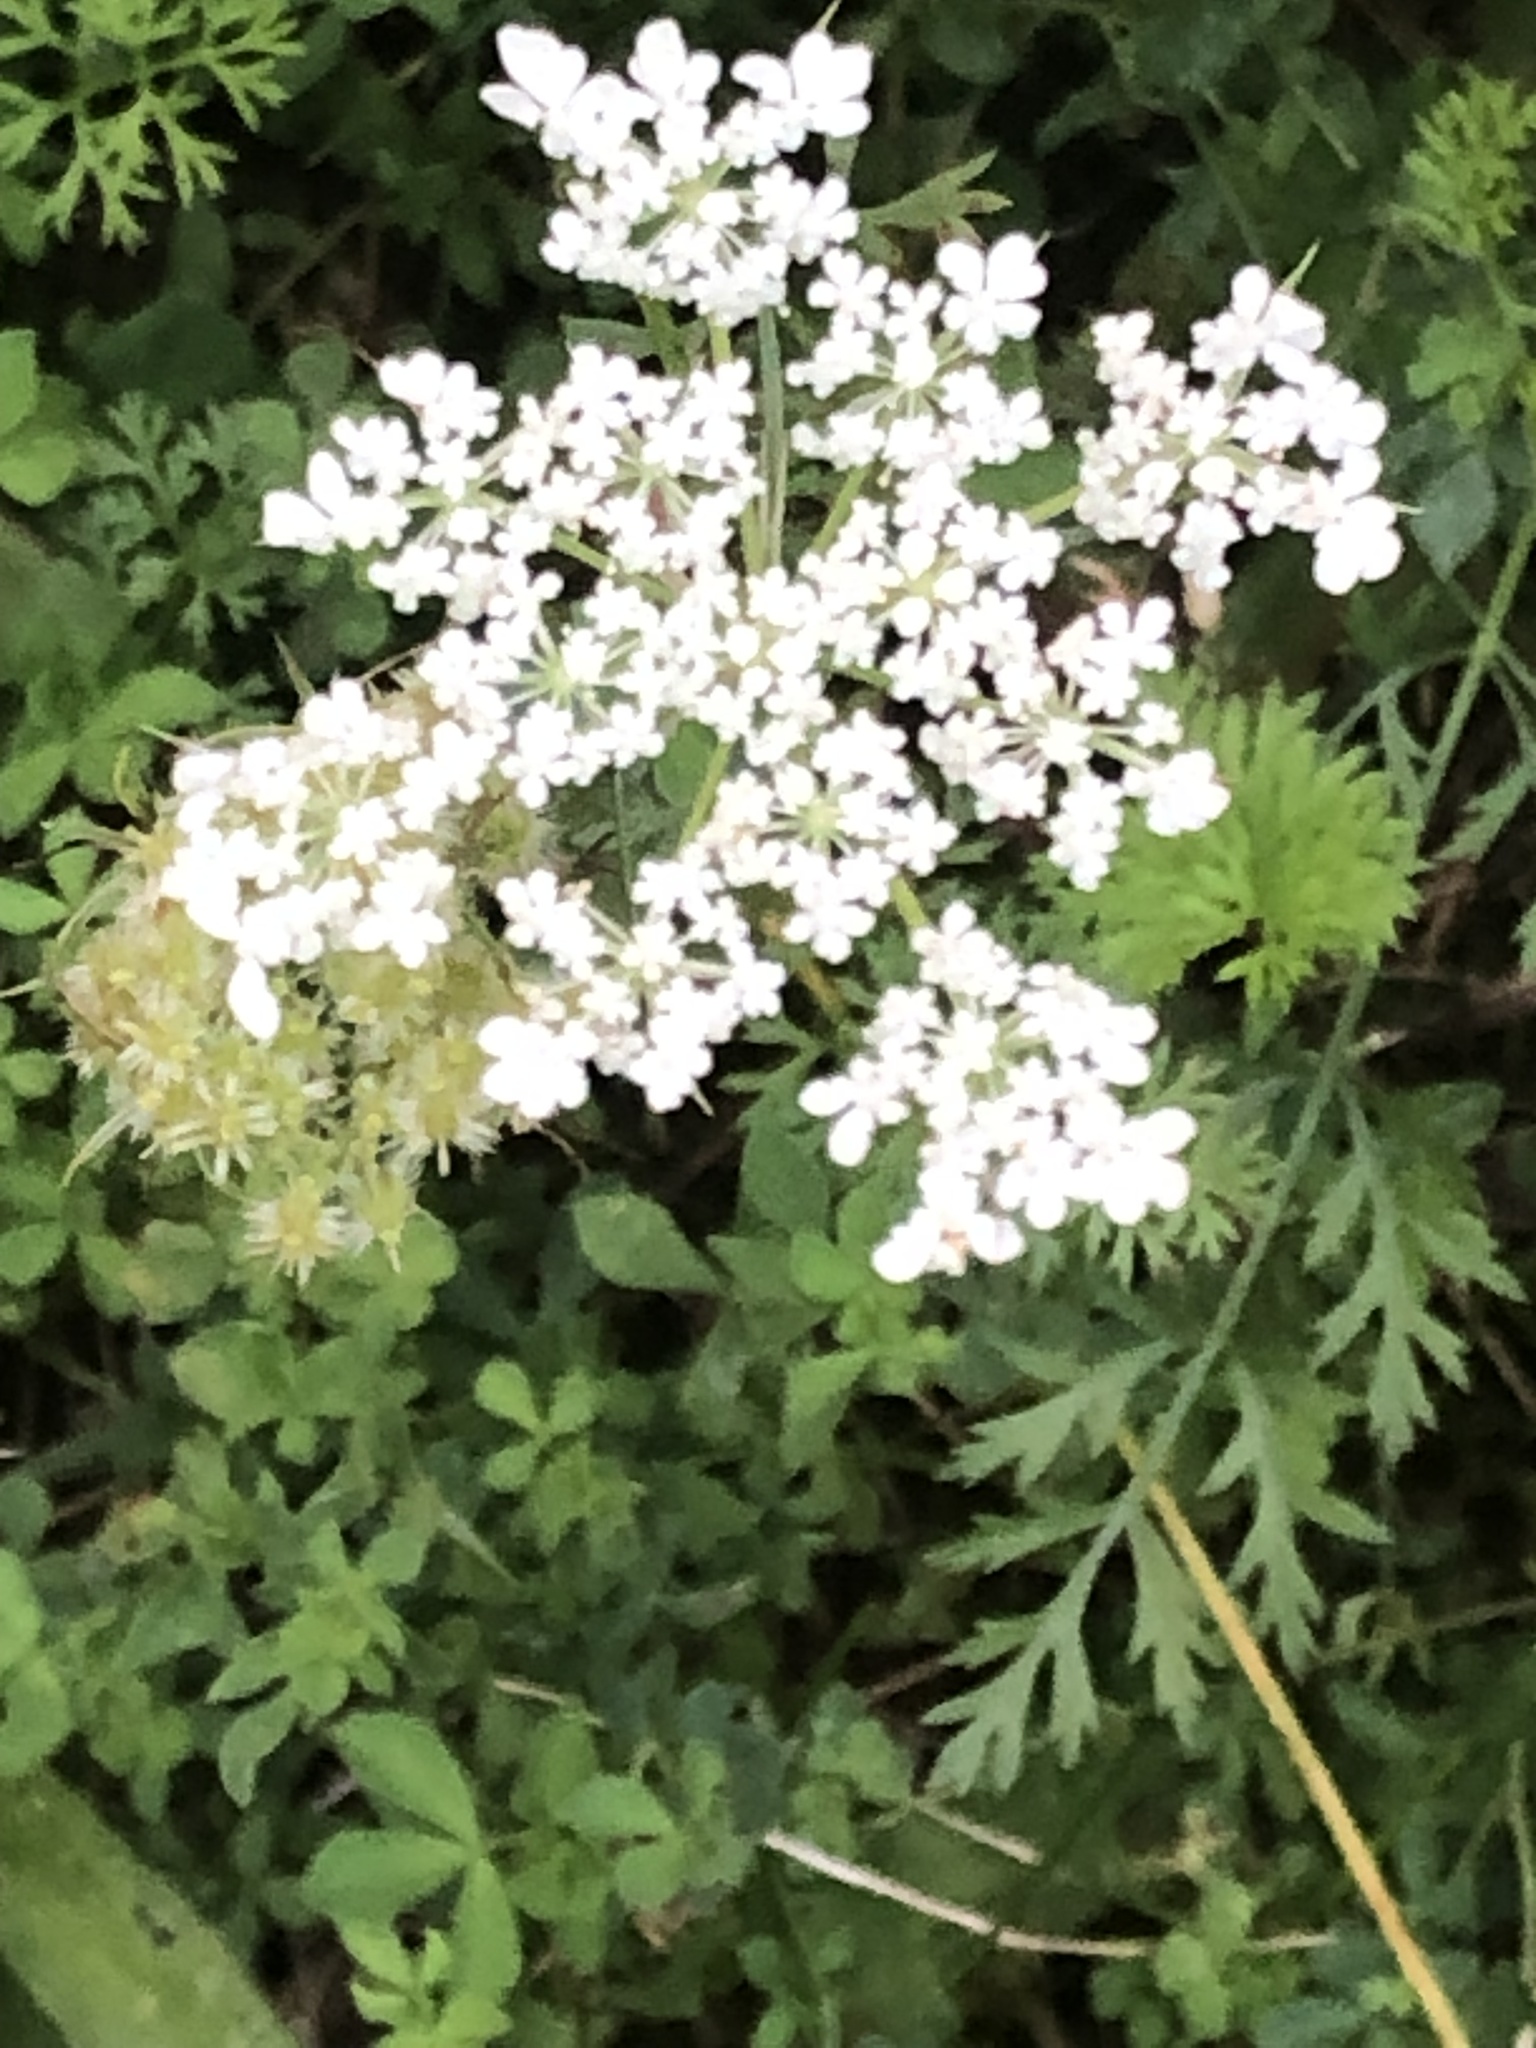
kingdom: Plantae
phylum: Tracheophyta
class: Magnoliopsida
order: Apiales
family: Apiaceae
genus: Daucus
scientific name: Daucus carota
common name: Wild carrot
